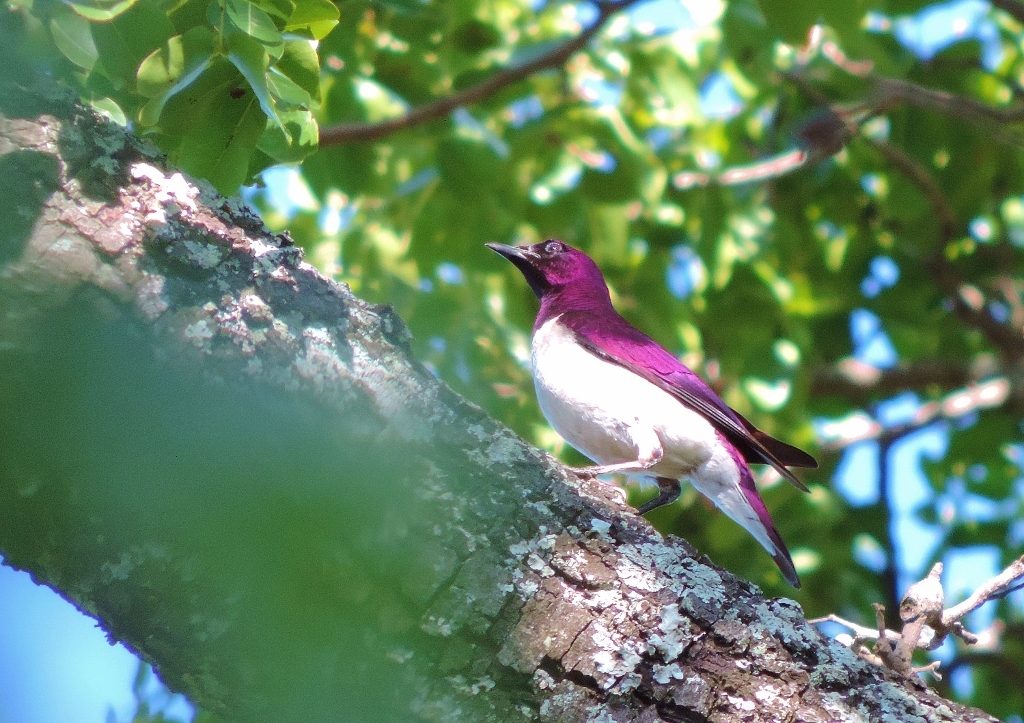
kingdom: Animalia
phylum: Chordata
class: Aves
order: Passeriformes
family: Sturnidae
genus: Cinnyricinclus
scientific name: Cinnyricinclus leucogaster
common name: Violet-backed starling
